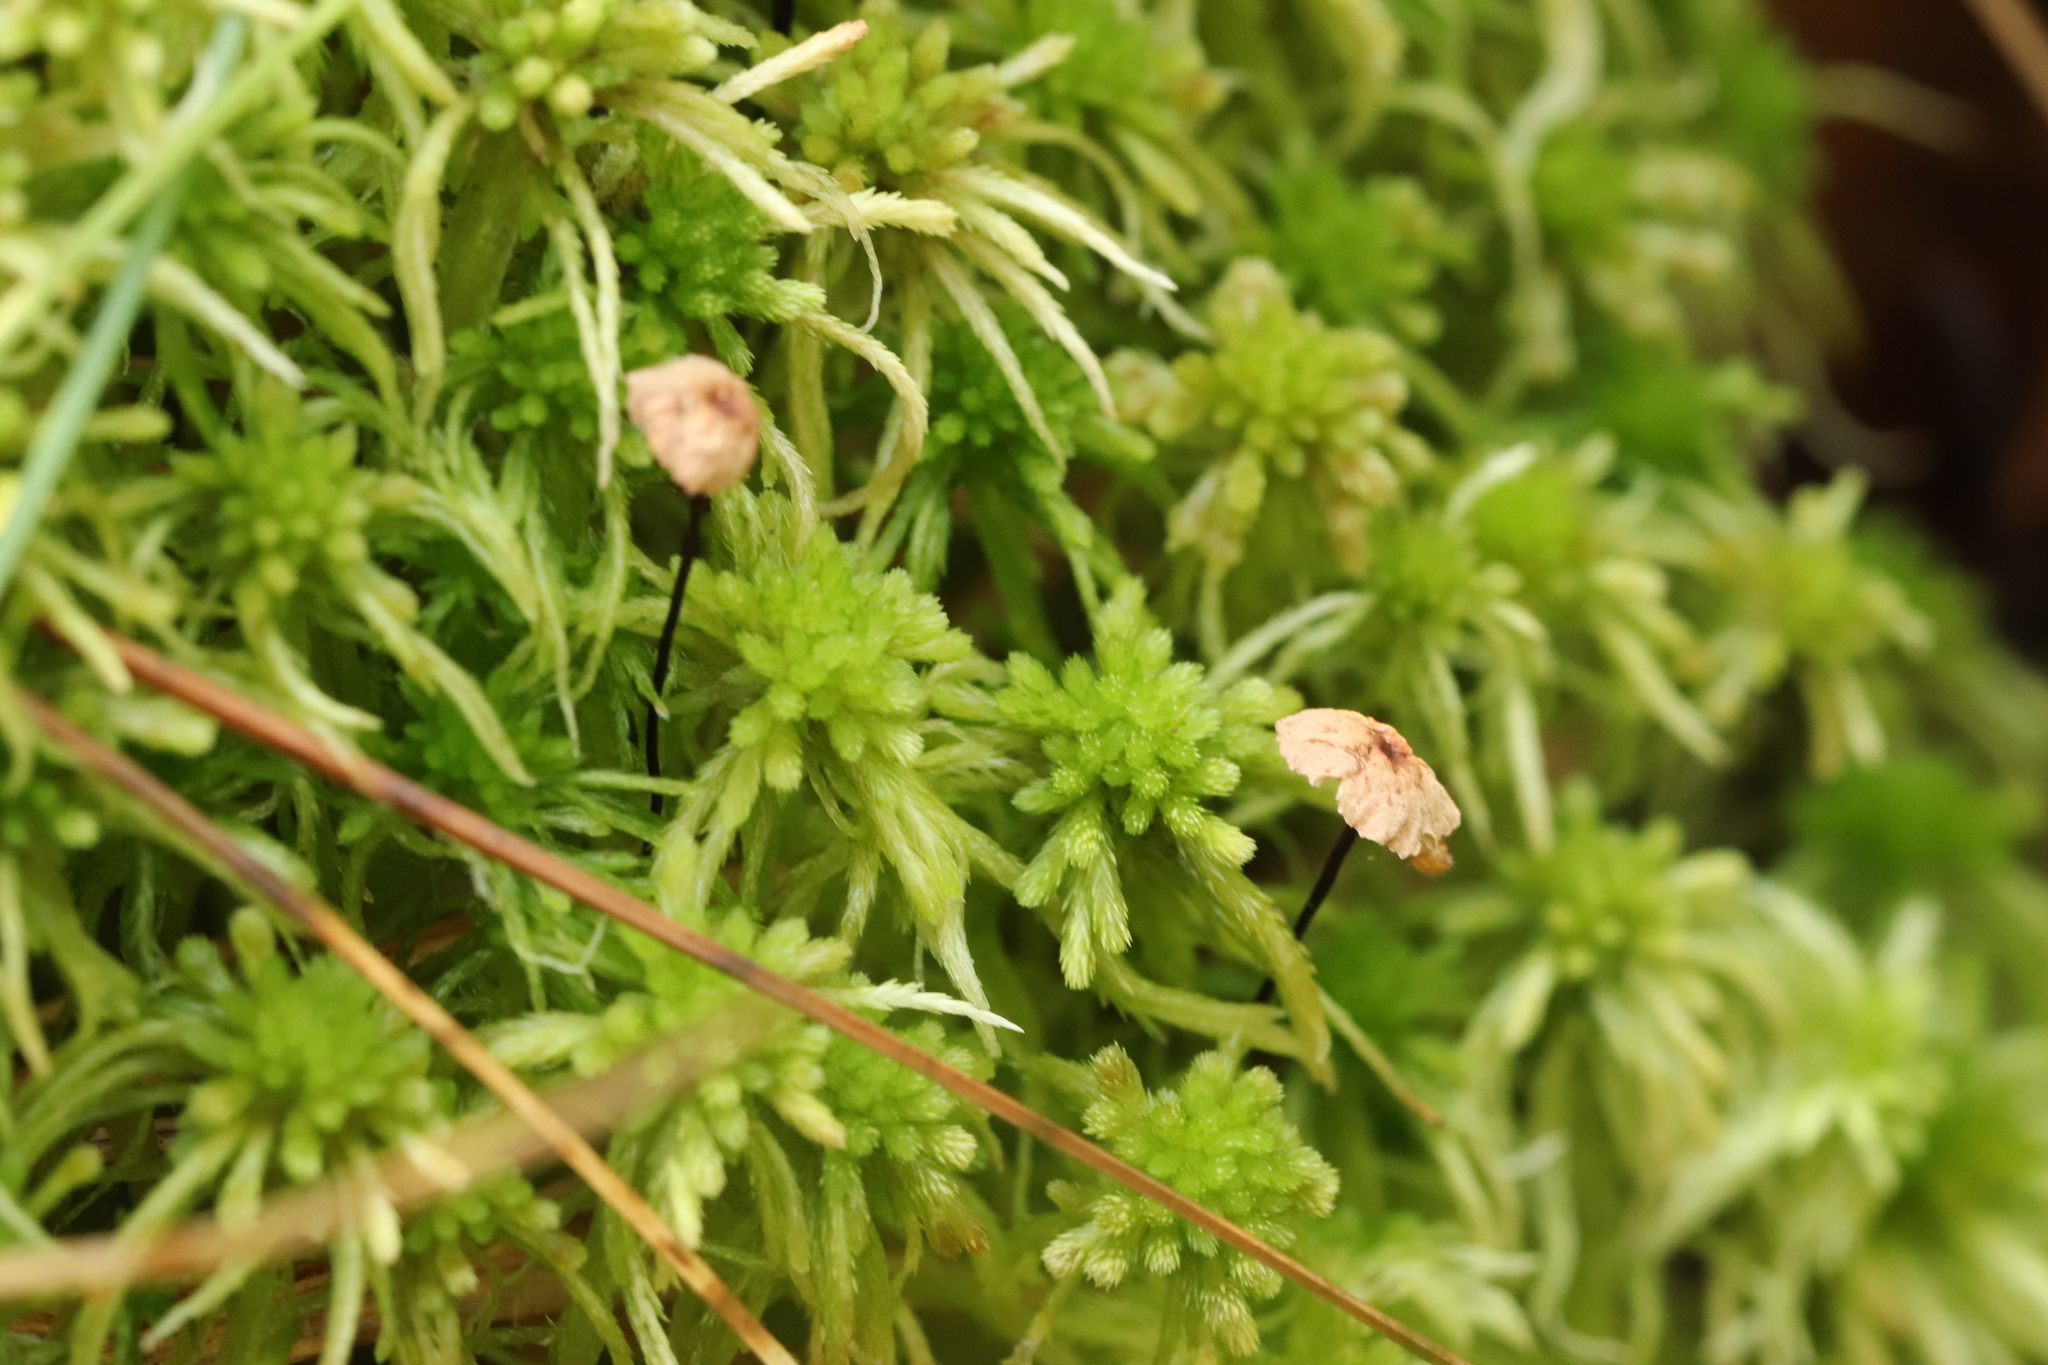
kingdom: Fungi
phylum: Basidiomycota
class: Agaricomycetes
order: Agaricales
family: Omphalotaceae
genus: Gymnopus
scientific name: Gymnopus androsaceus
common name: Horse-hair fungus
